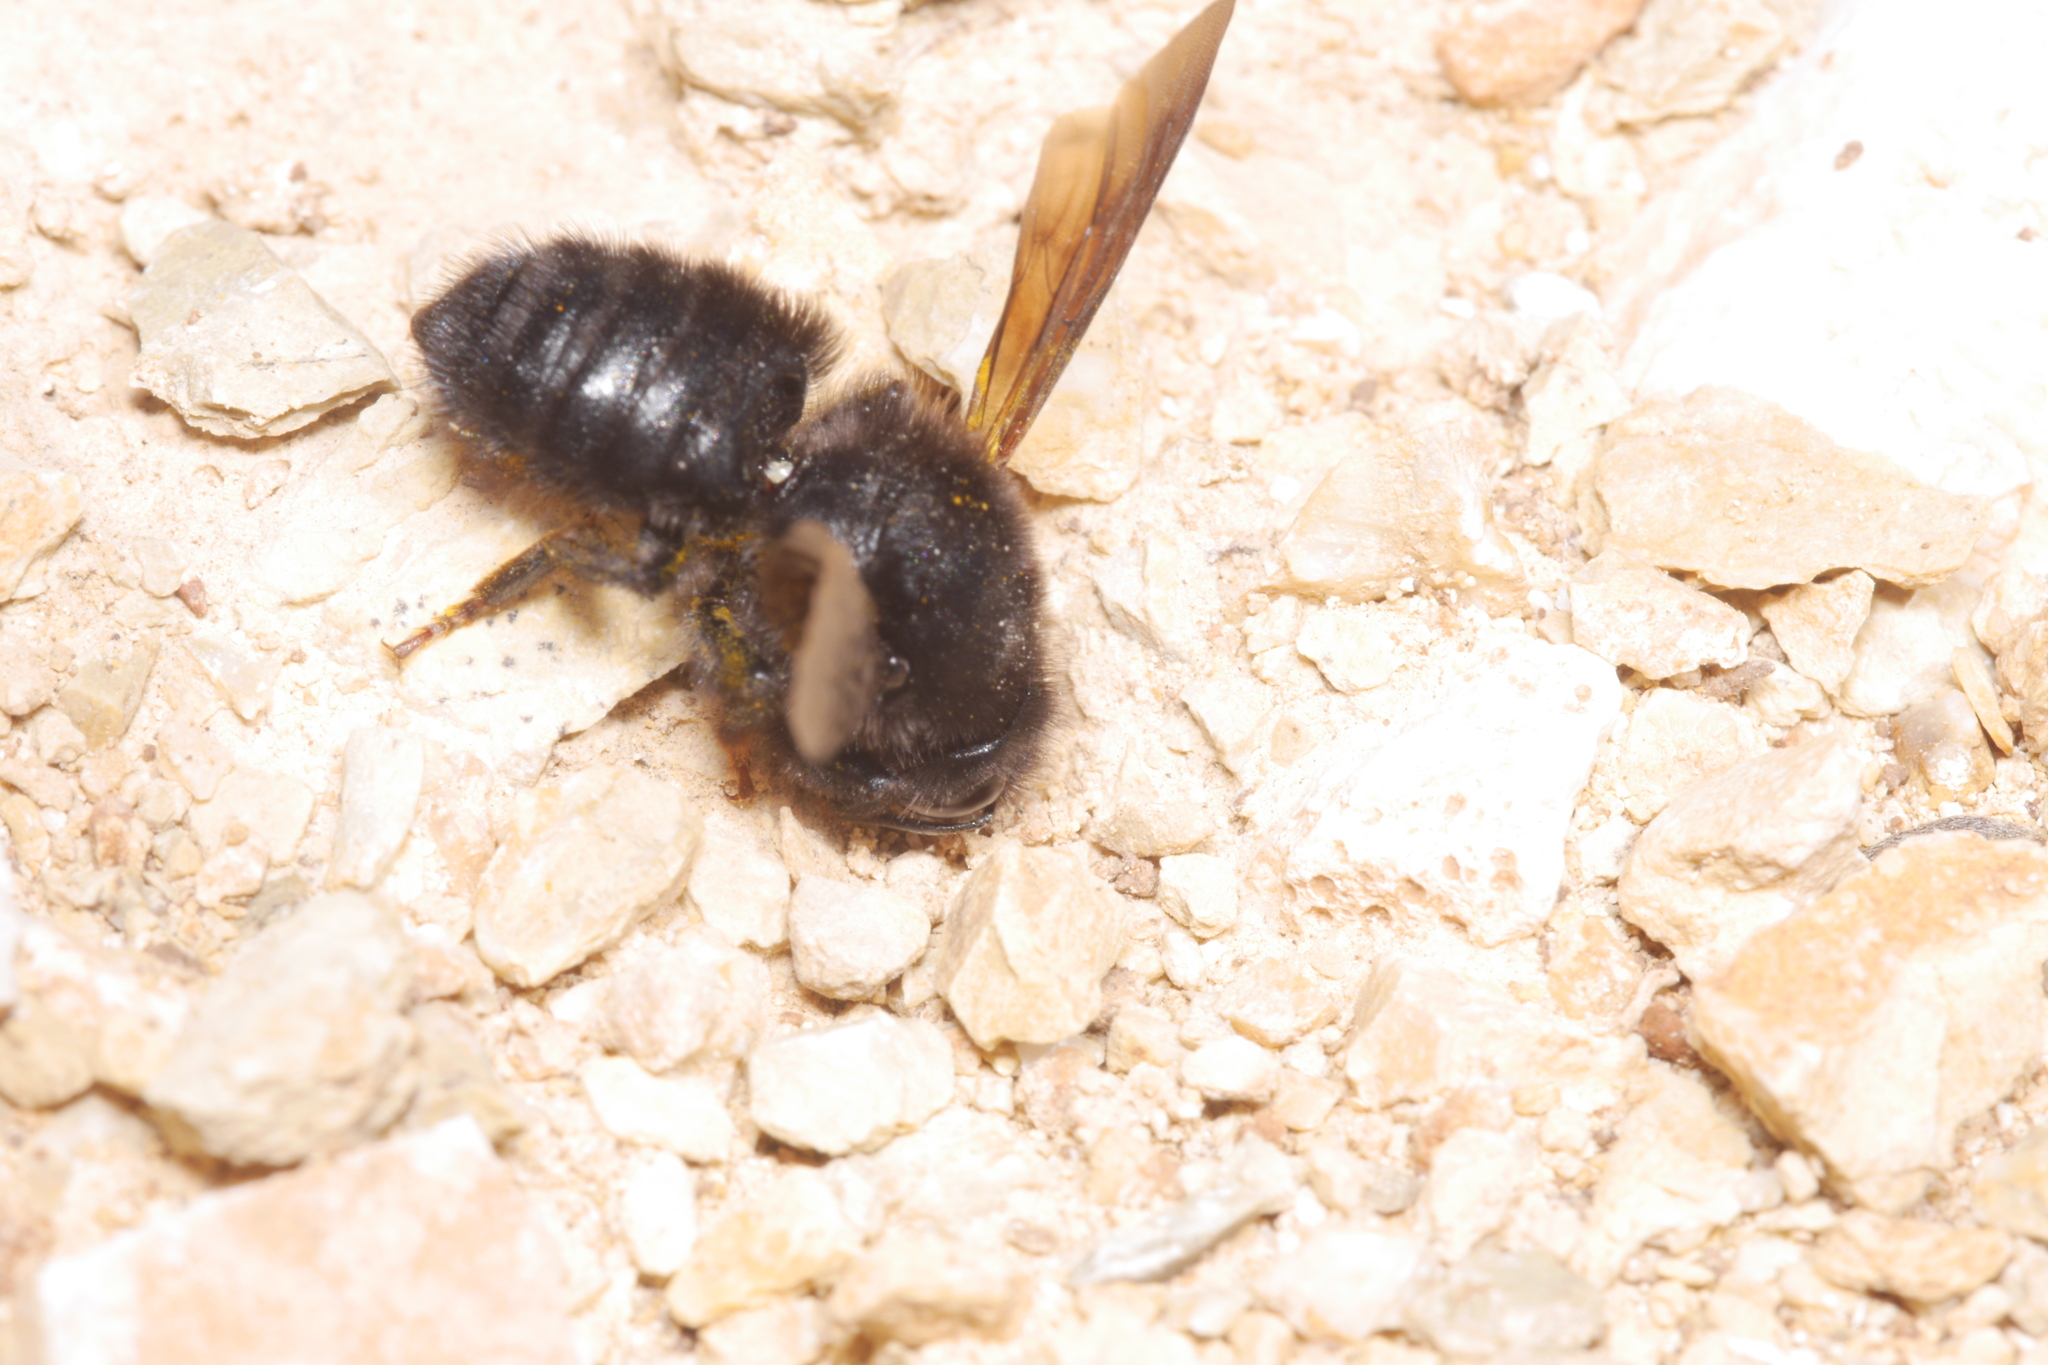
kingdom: Animalia
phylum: Arthropoda
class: Insecta
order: Hymenoptera
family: Megachilidae
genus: Megachile
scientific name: Megachile parietina
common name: Black mud bee
